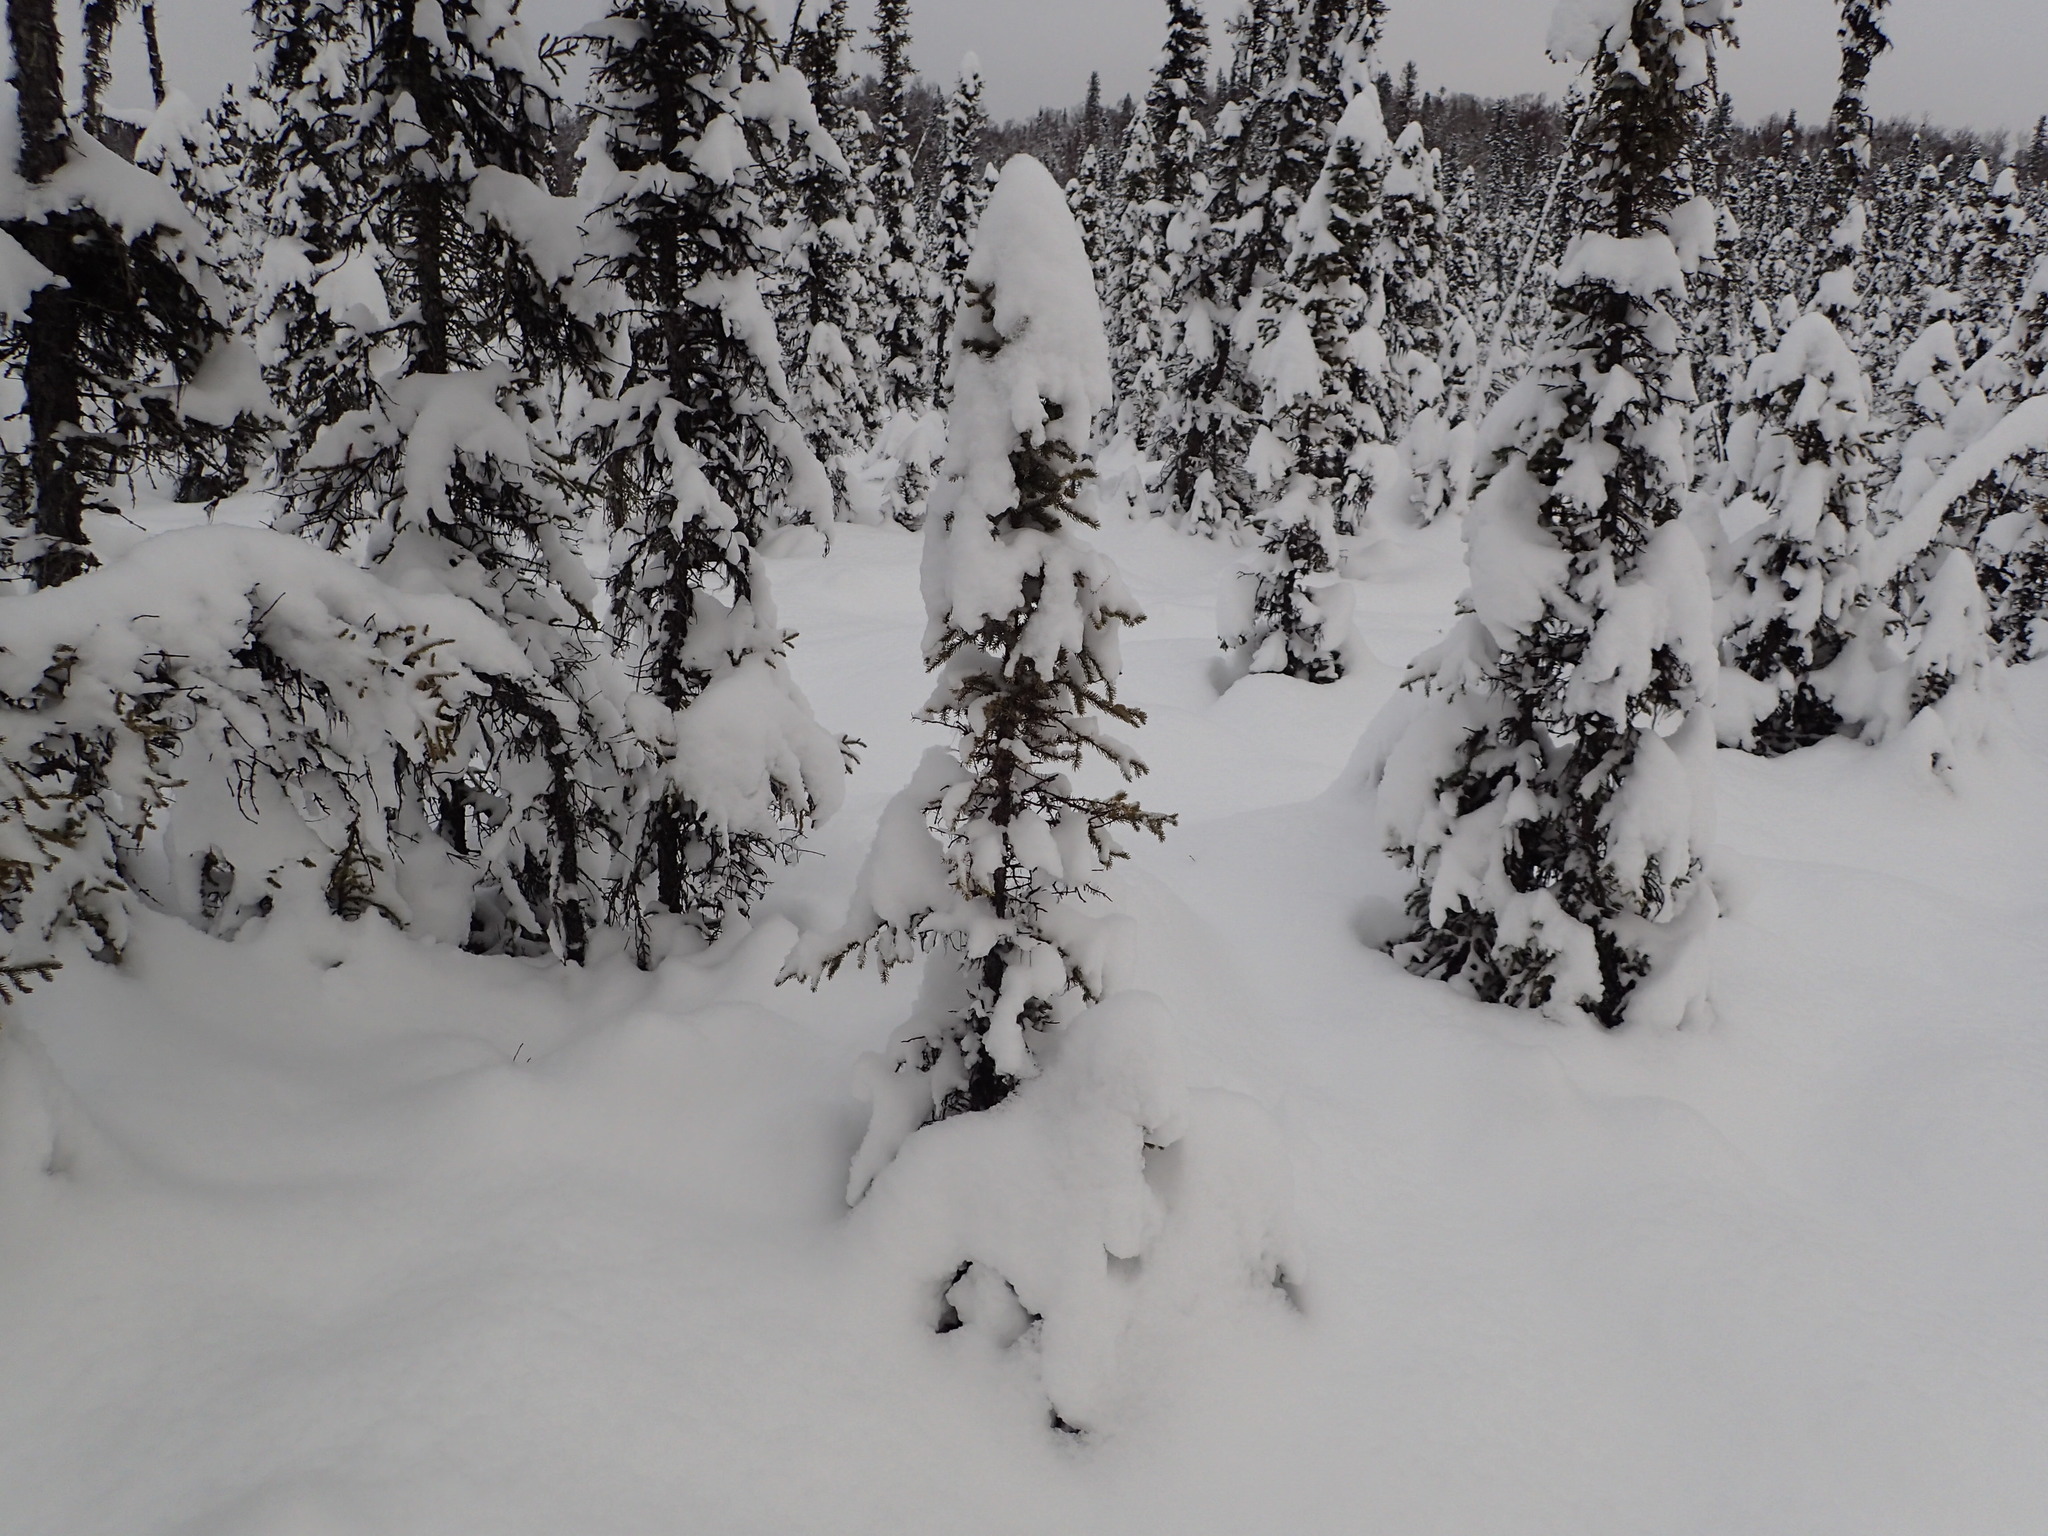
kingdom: Plantae
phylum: Tracheophyta
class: Pinopsida
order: Pinales
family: Pinaceae
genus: Picea
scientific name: Picea mariana
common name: Black spruce
